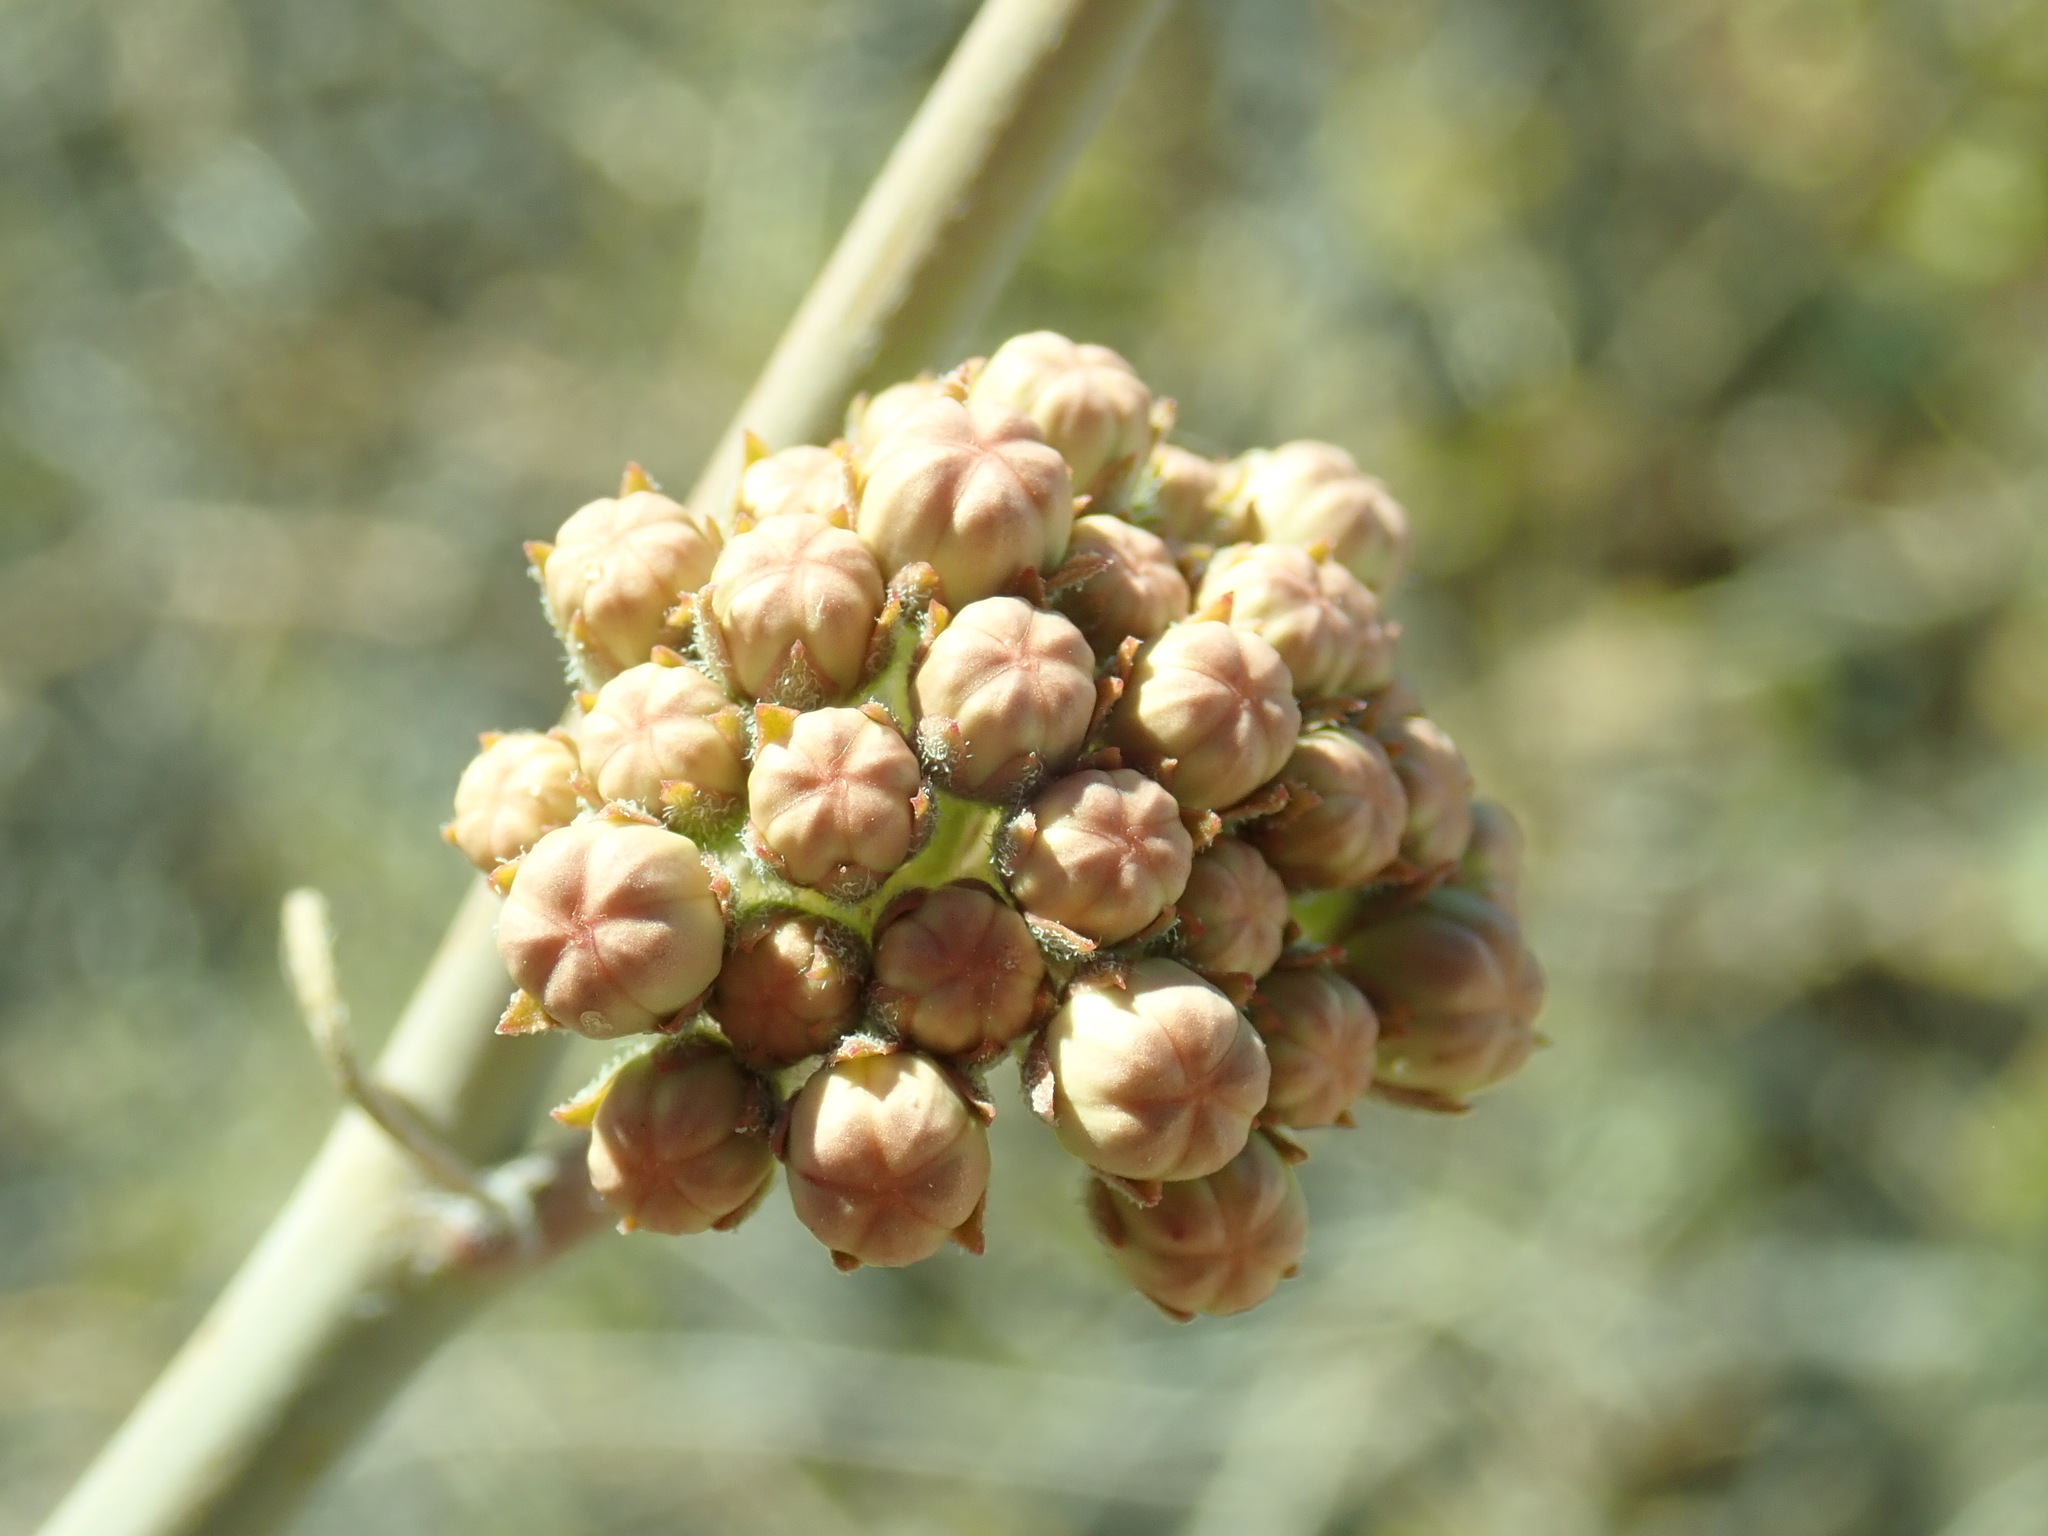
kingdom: Plantae
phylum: Tracheophyta
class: Magnoliopsida
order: Gentianales
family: Apocynaceae
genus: Asclepias
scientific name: Asclepias albicans
